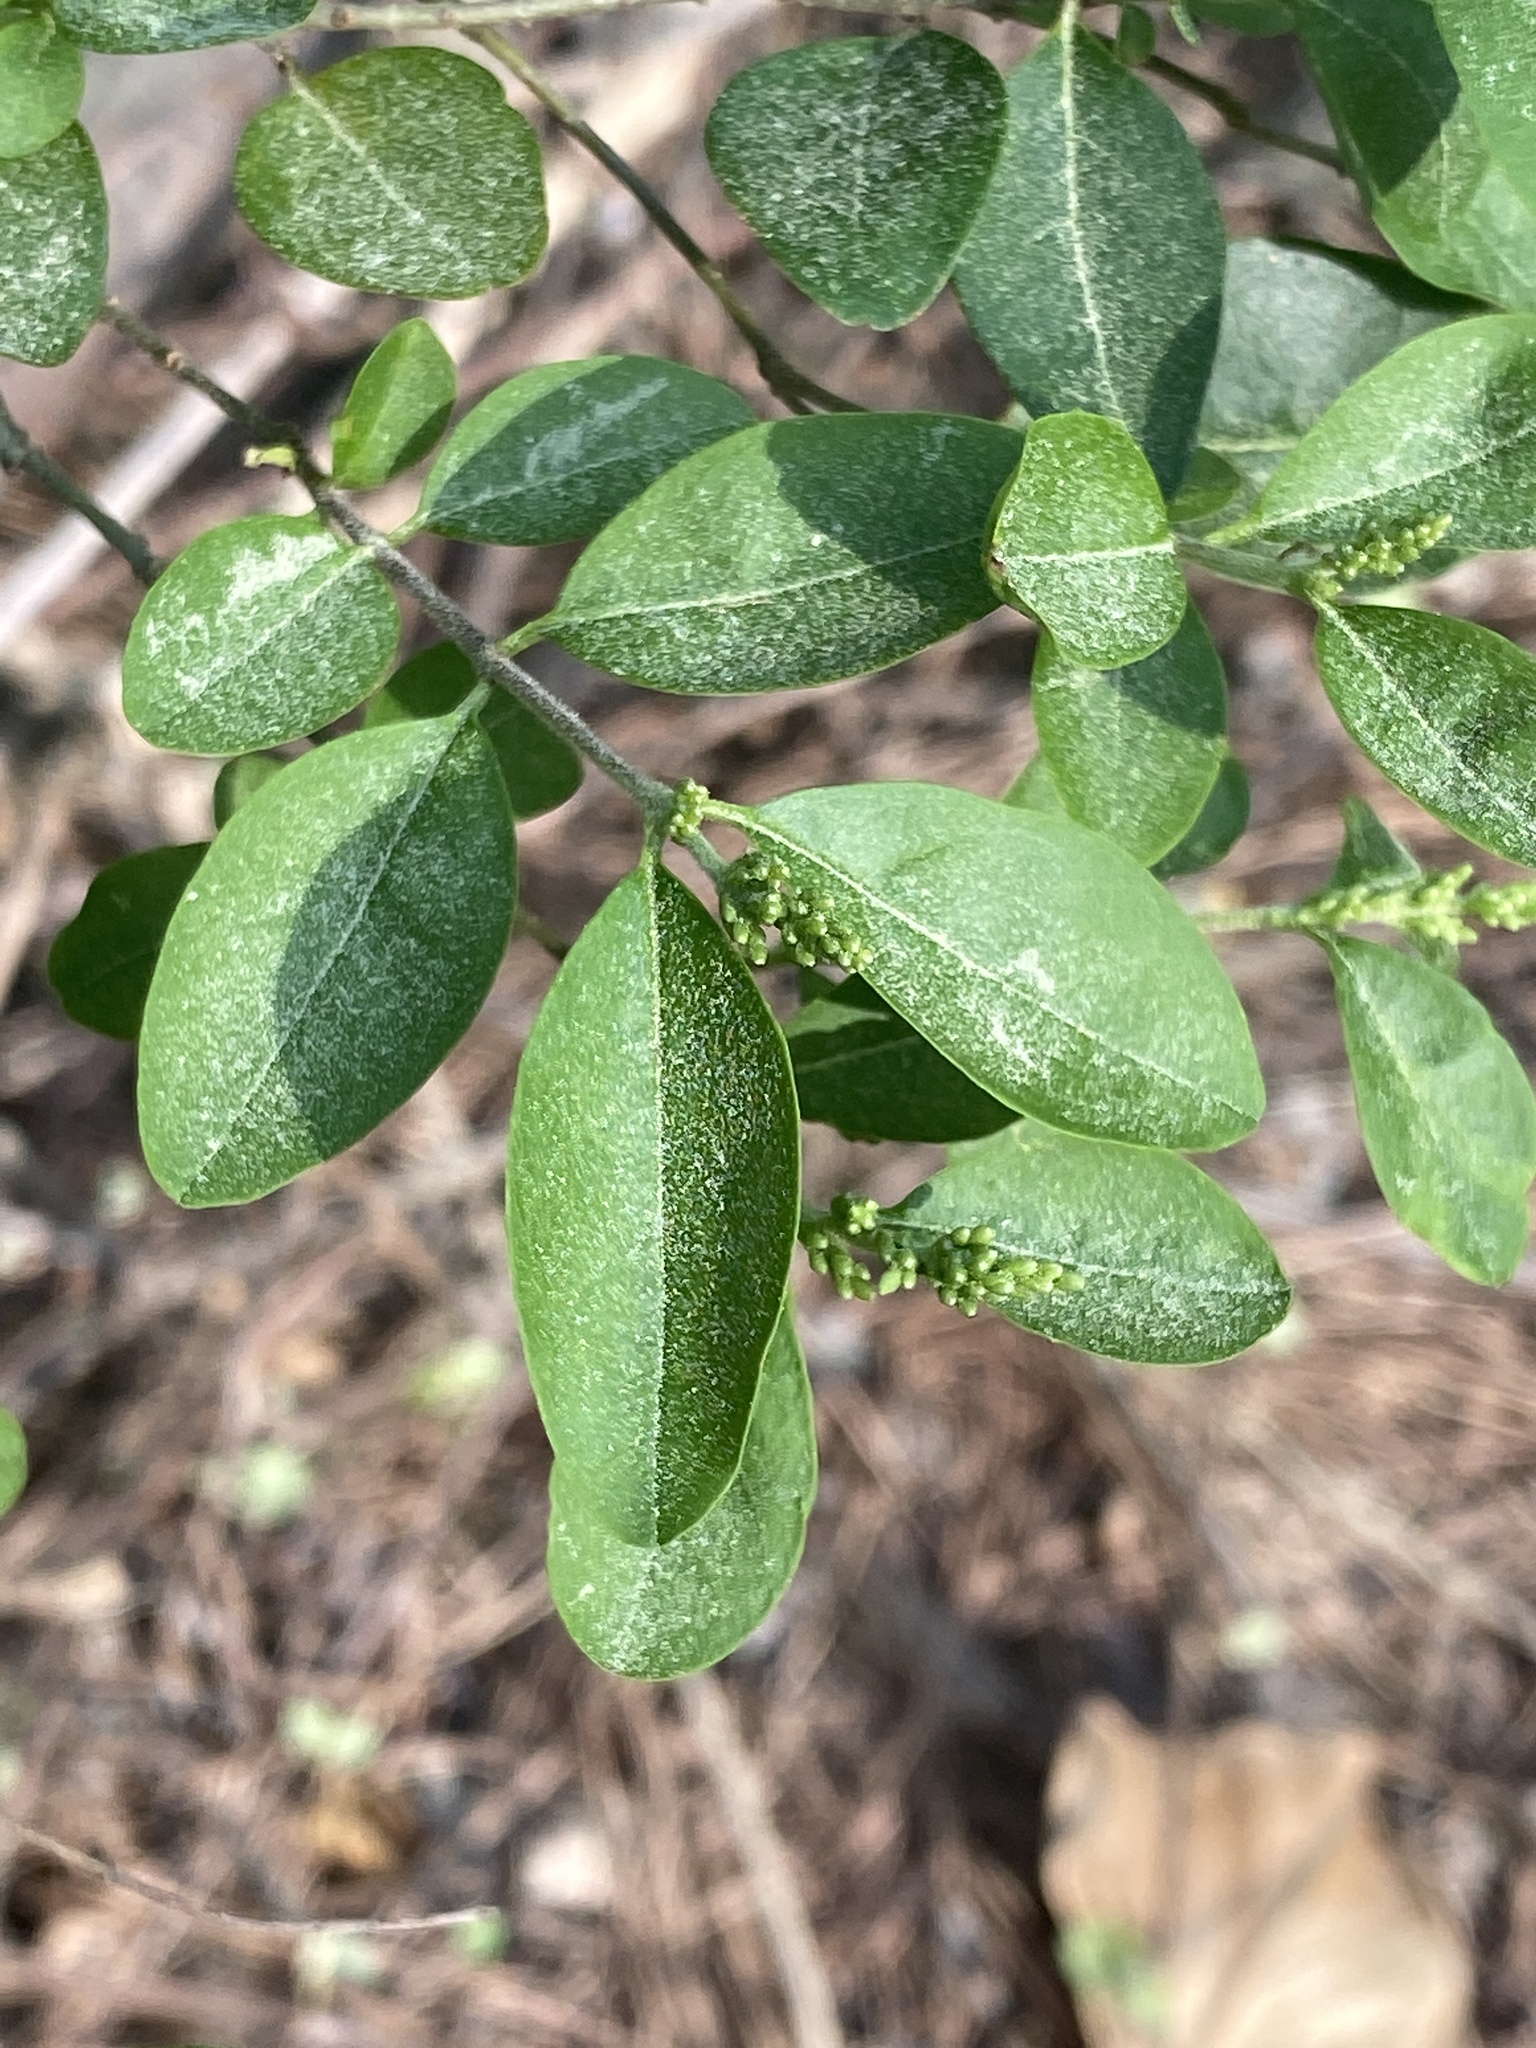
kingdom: Plantae
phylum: Tracheophyta
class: Magnoliopsida
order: Lamiales
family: Oleaceae
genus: Ligustrum
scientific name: Ligustrum sinense
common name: Chinese privet
